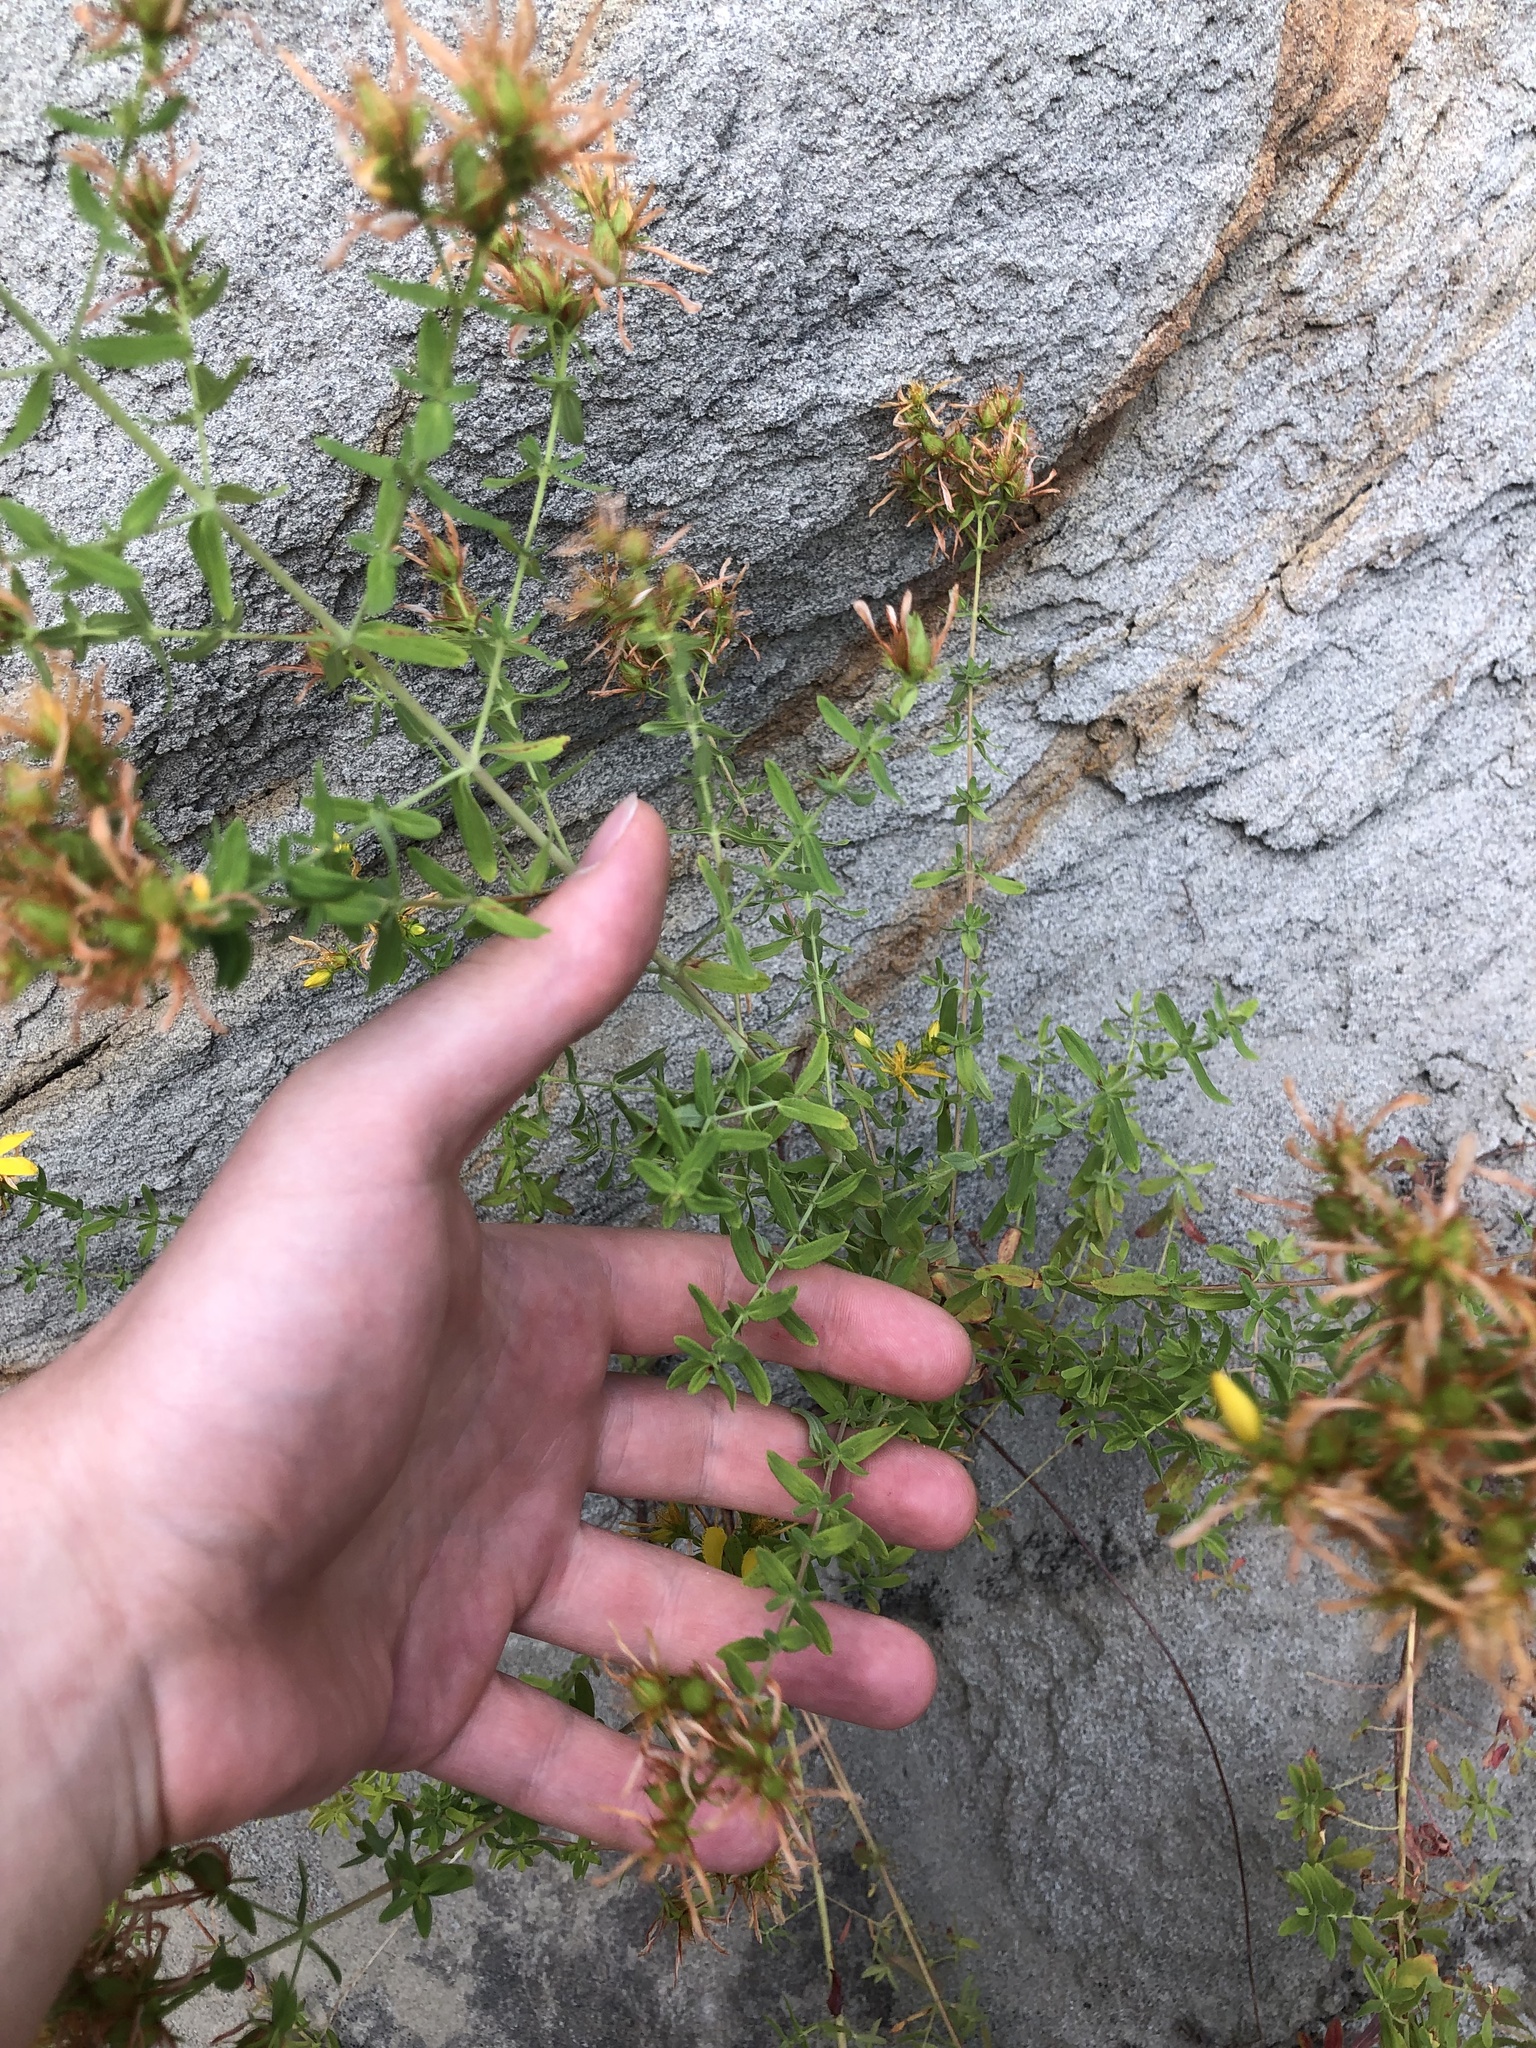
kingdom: Plantae
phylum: Tracheophyta
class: Magnoliopsida
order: Malpighiales
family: Hypericaceae
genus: Hypericum
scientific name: Hypericum perforatum
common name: Common st. johnswort
